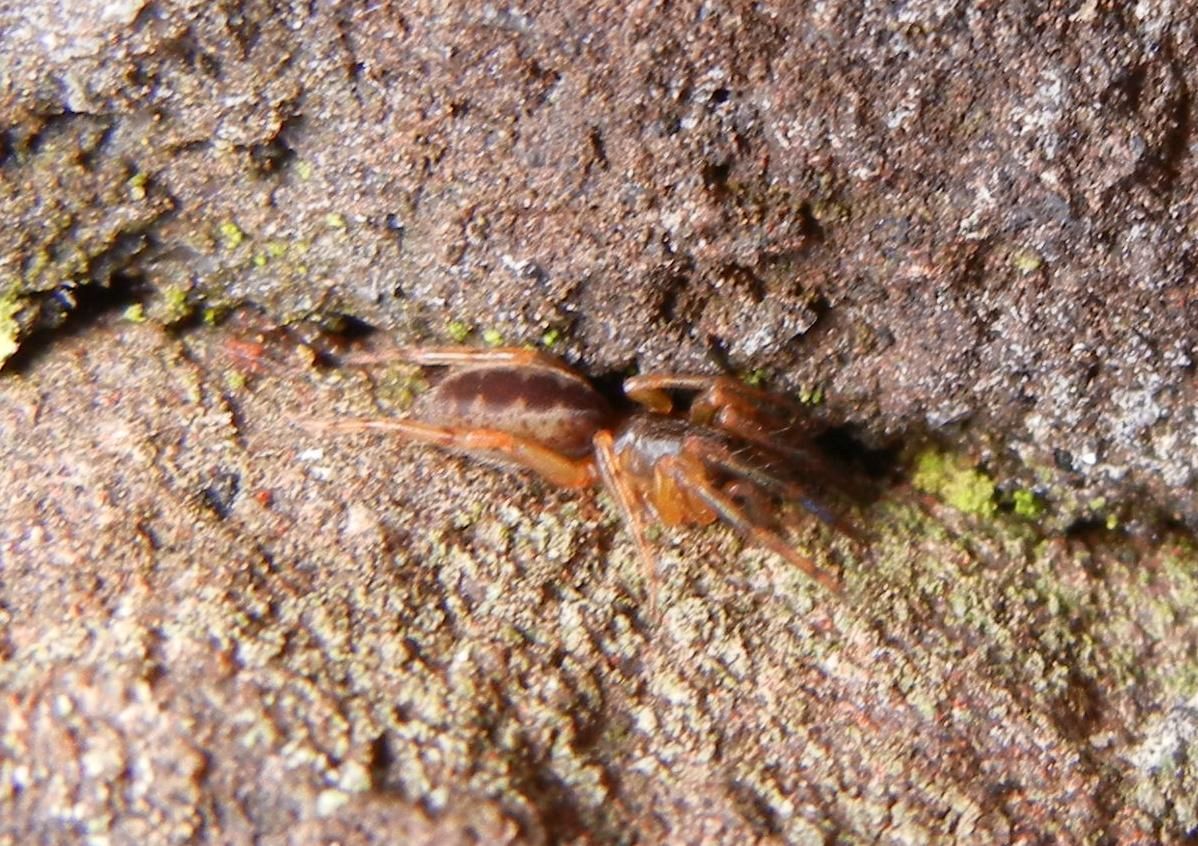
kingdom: Animalia
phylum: Arthropoda
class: Arachnida
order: Araneae
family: Segestriidae
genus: Segestria
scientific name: Segestria senoculata
